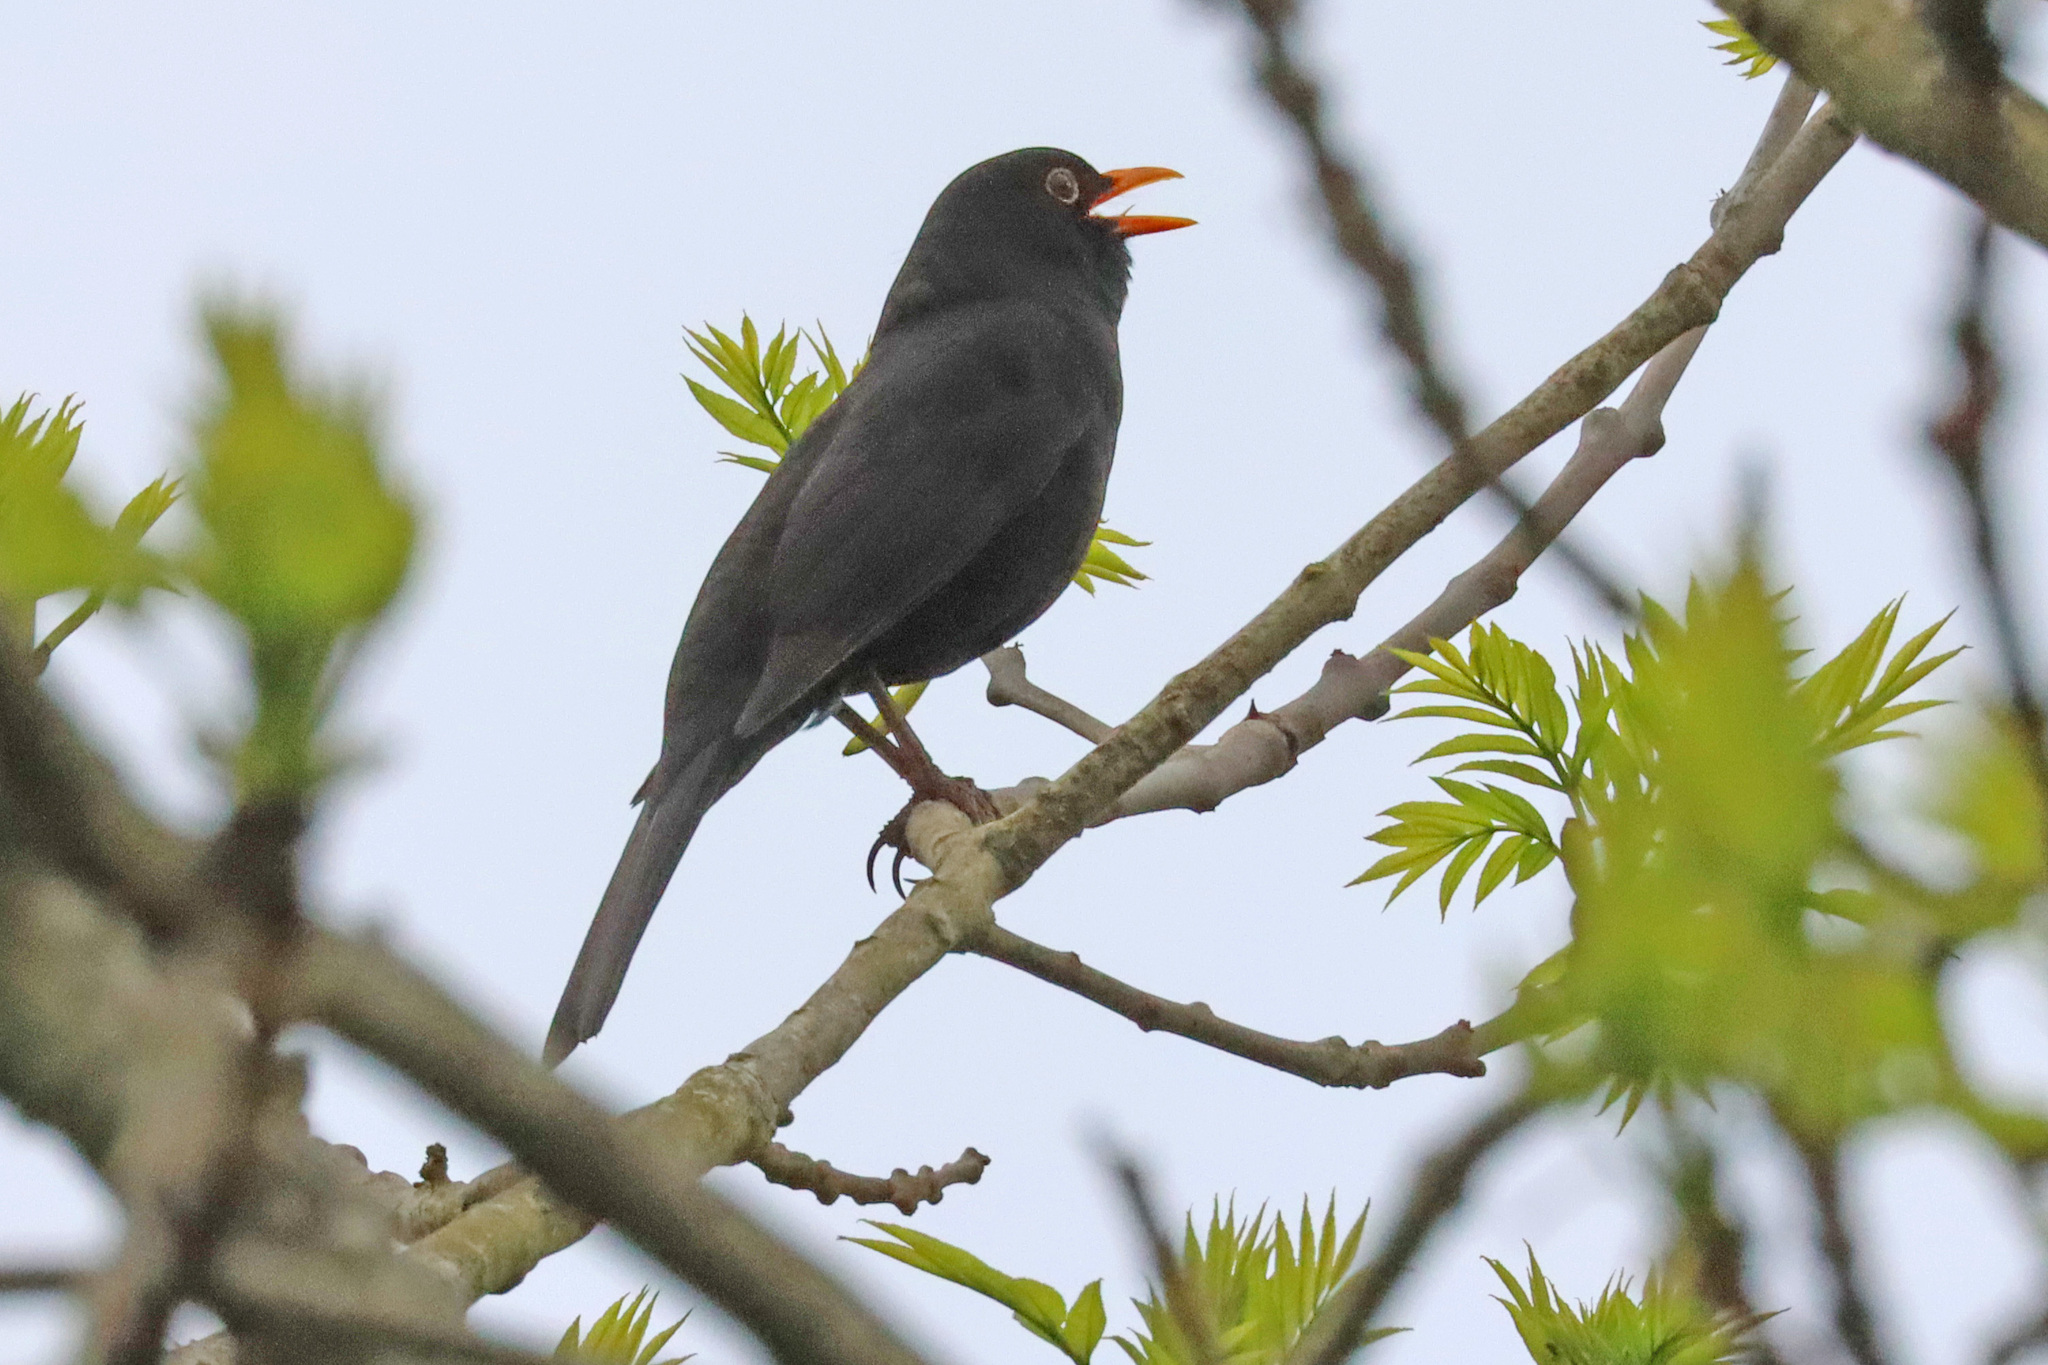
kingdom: Animalia
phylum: Chordata
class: Aves
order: Passeriformes
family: Turdidae
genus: Turdus
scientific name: Turdus merula
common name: Common blackbird
